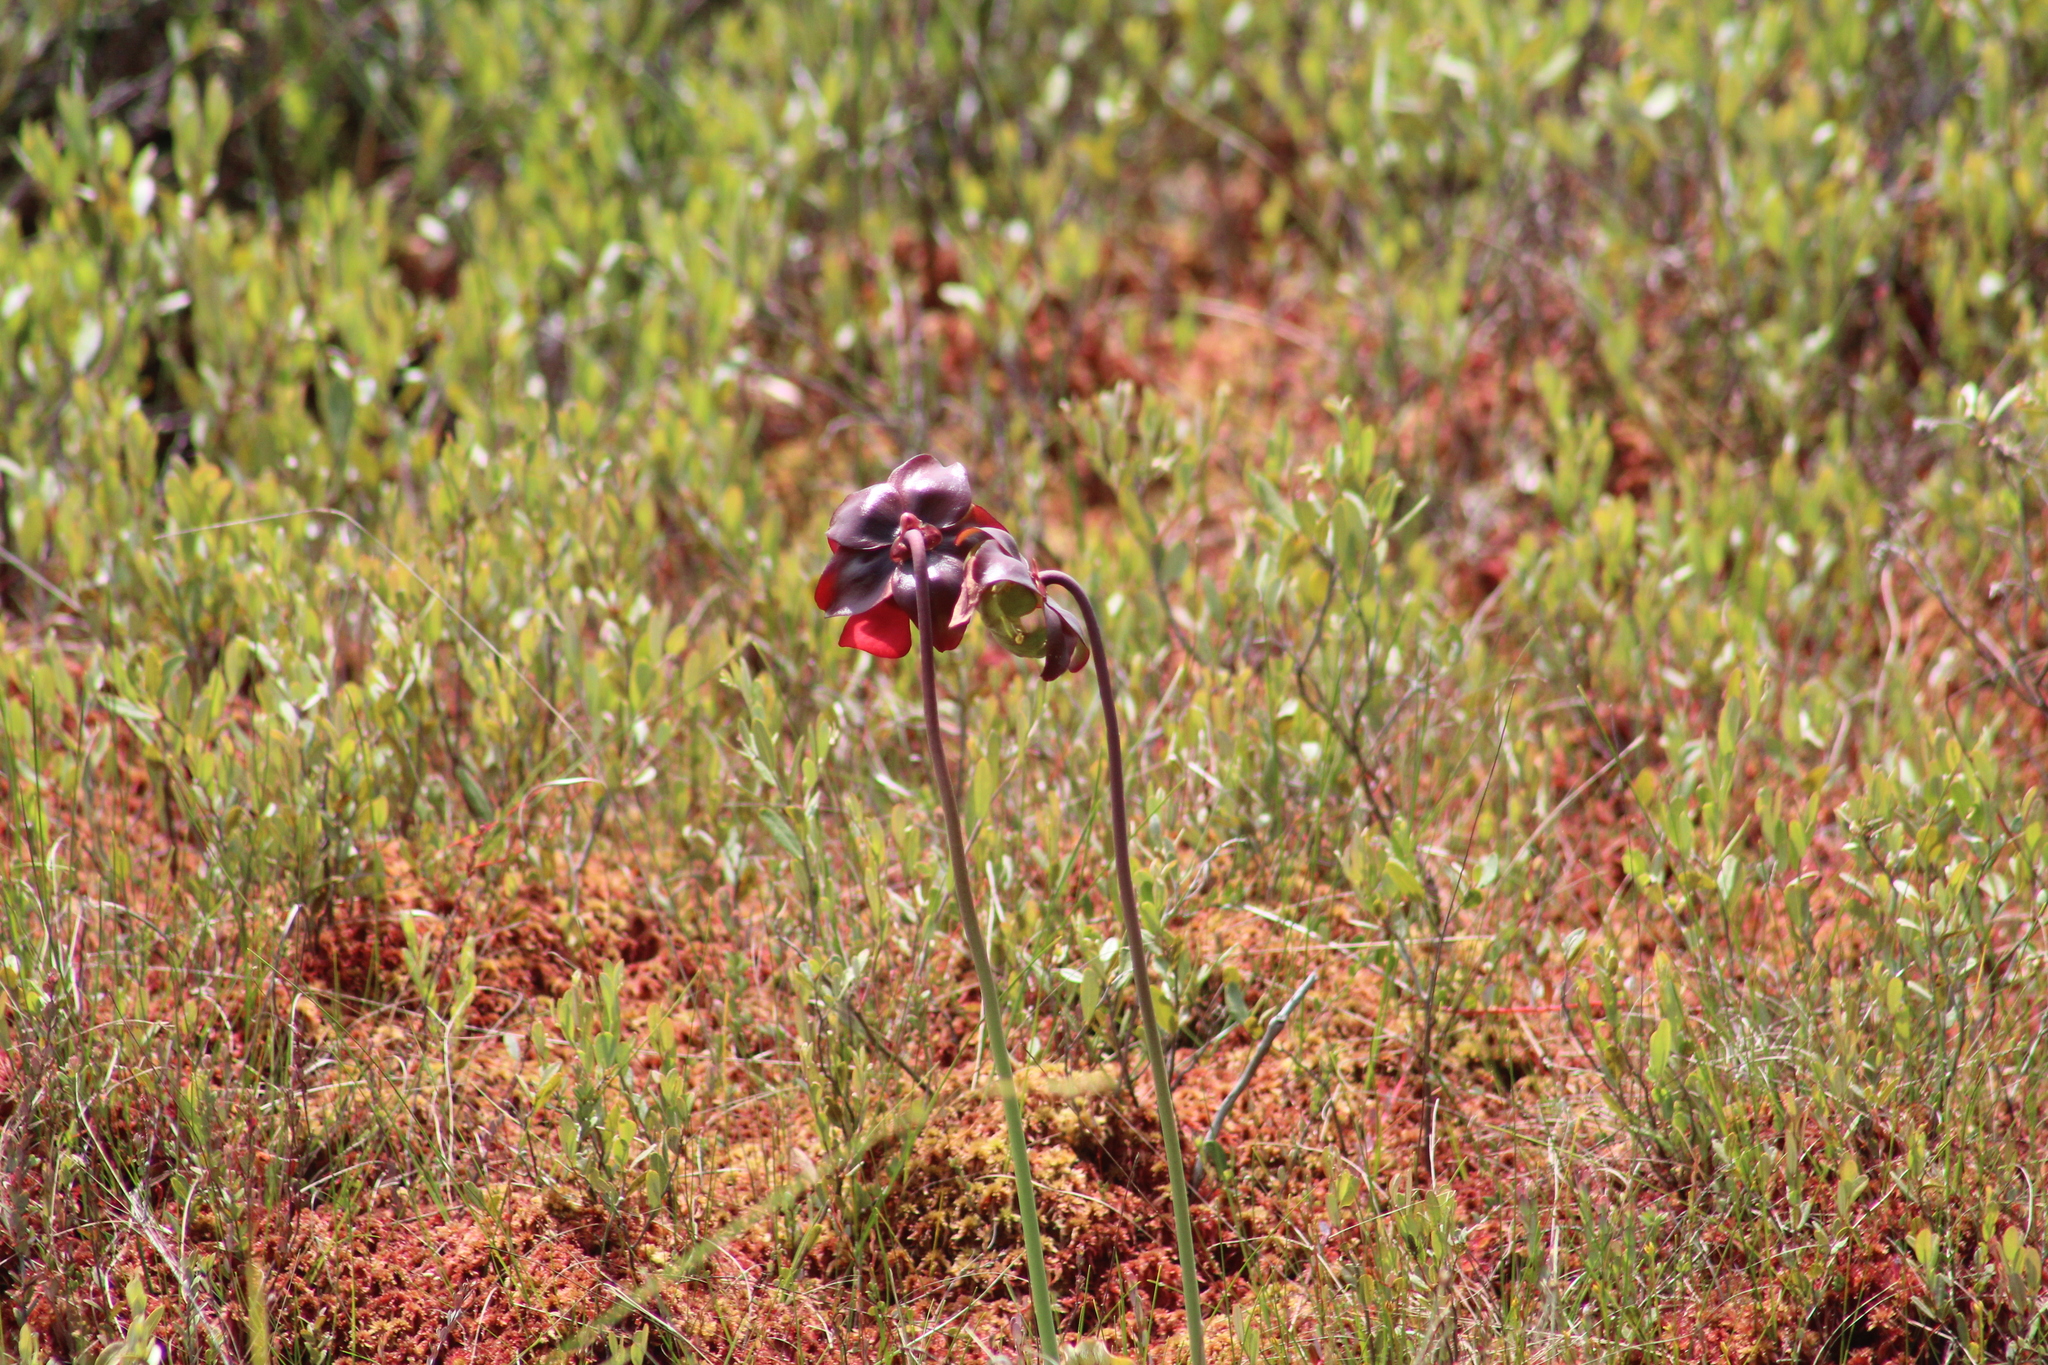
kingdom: Plantae
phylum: Tracheophyta
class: Magnoliopsida
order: Ericales
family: Sarraceniaceae
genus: Sarracenia
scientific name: Sarracenia purpurea
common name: Pitcherplant
